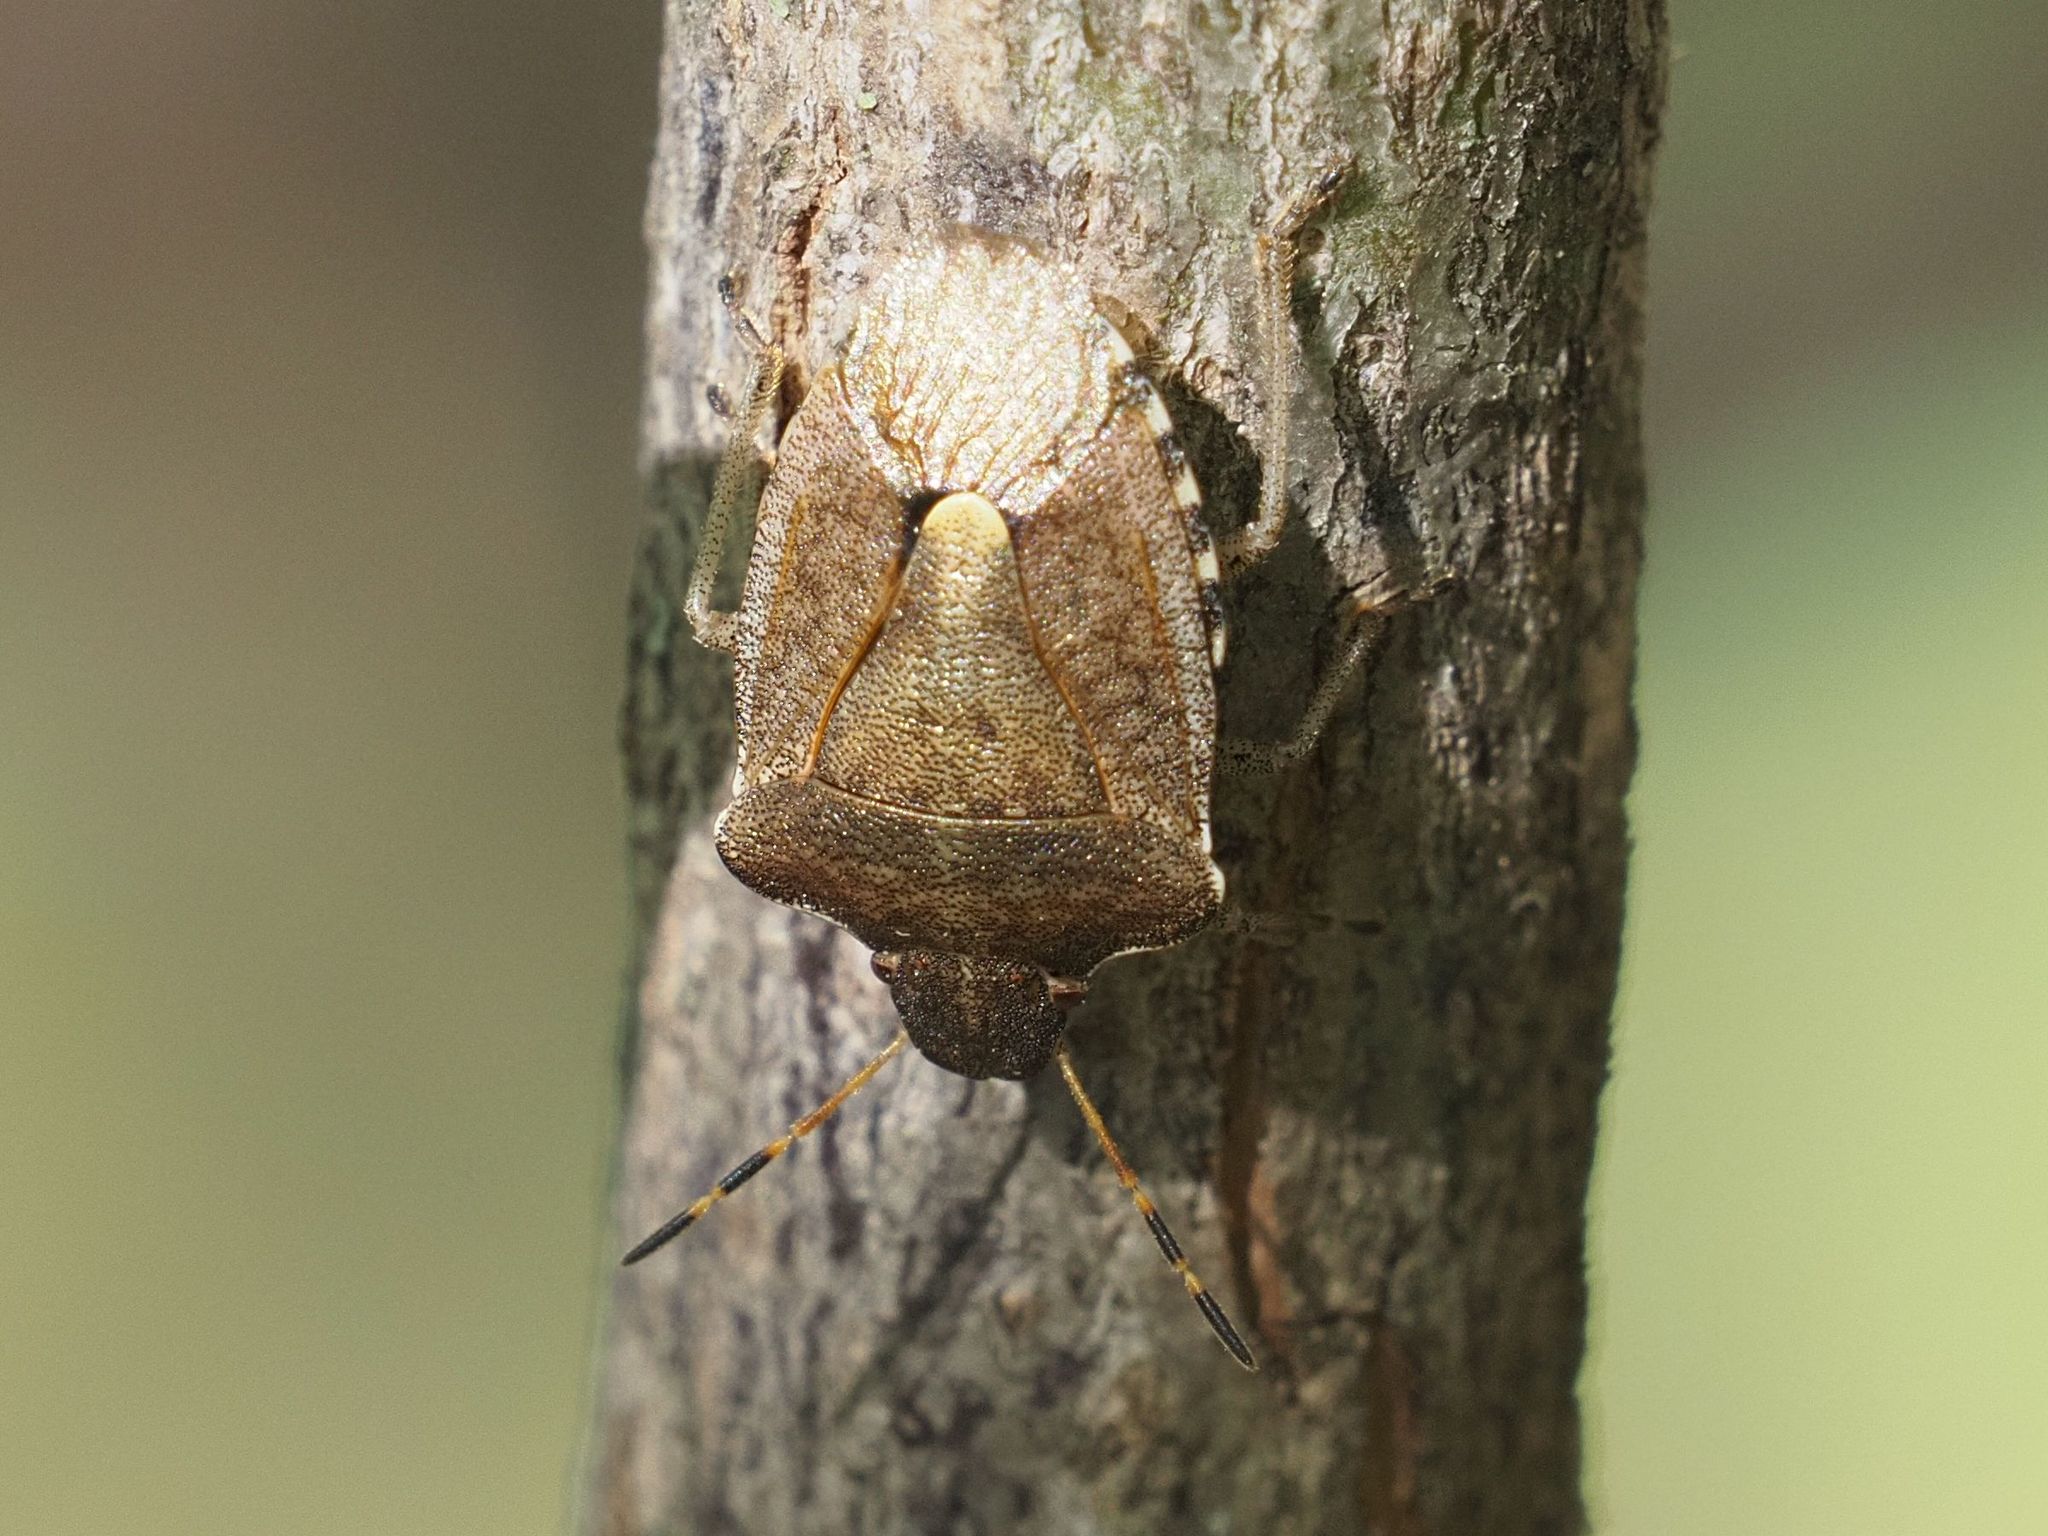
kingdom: Animalia
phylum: Arthropoda
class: Insecta
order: Hemiptera
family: Pentatomidae
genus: Holcostethus
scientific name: Holcostethus strictus
